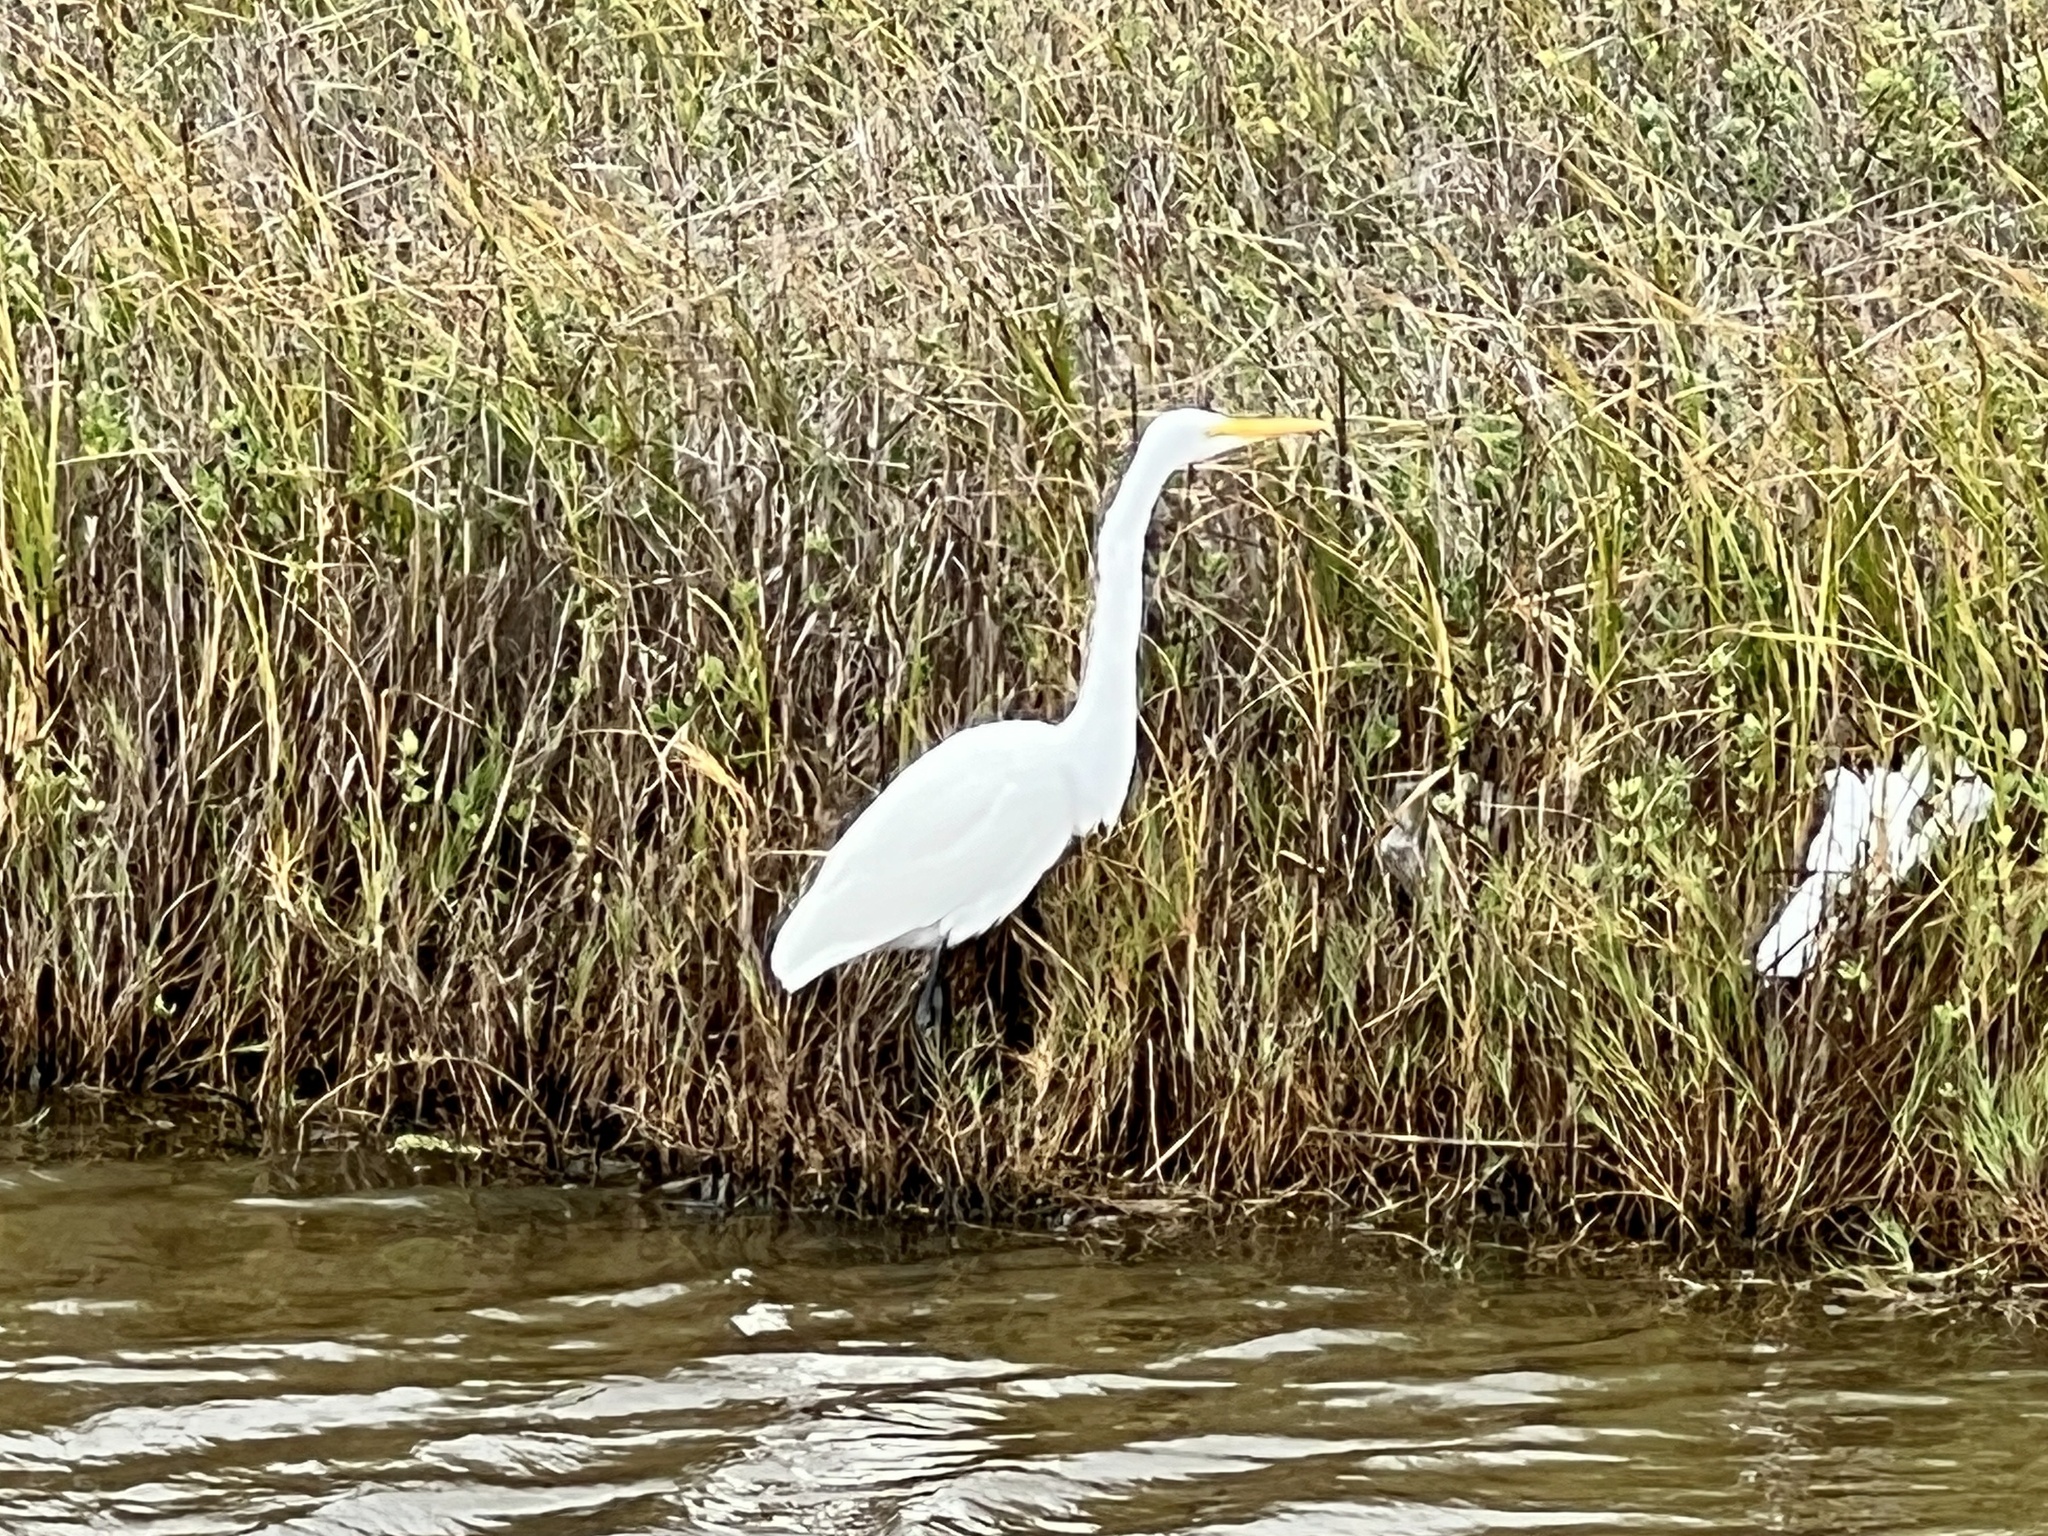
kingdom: Animalia
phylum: Chordata
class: Aves
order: Pelecaniformes
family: Ardeidae
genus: Ardea
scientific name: Ardea alba
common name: Great egret
